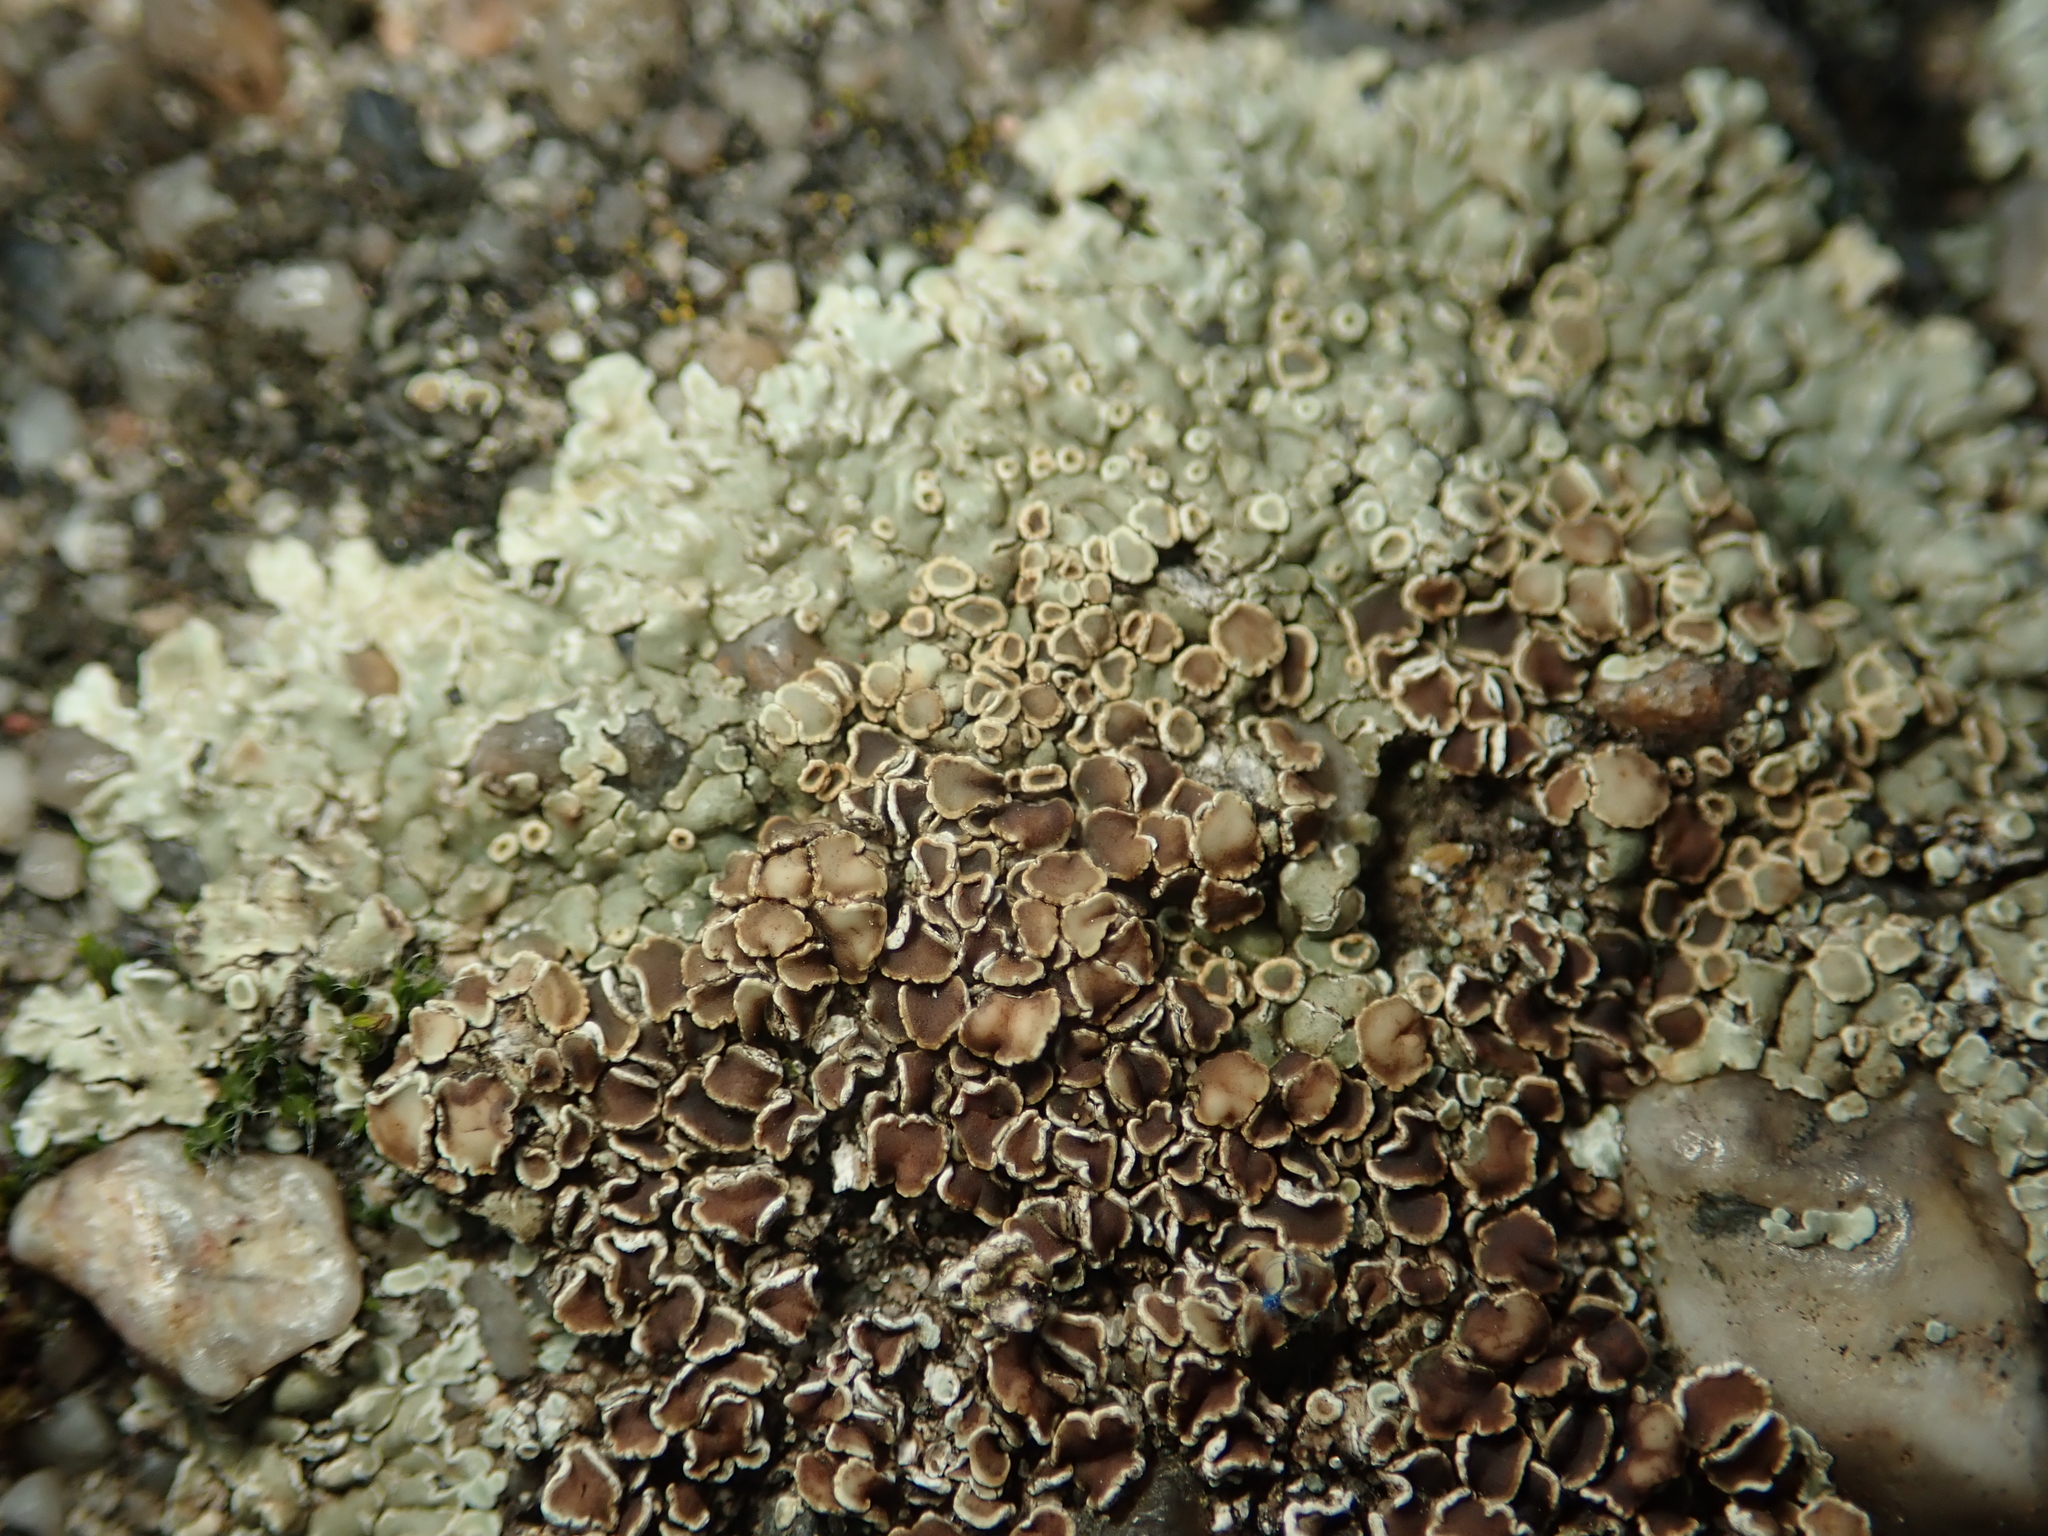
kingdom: Fungi
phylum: Ascomycota
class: Lecanoromycetes
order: Lecanorales
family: Lecanoraceae
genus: Protoparmeliopsis
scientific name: Protoparmeliopsis muralis
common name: Stonewall rim lichen
